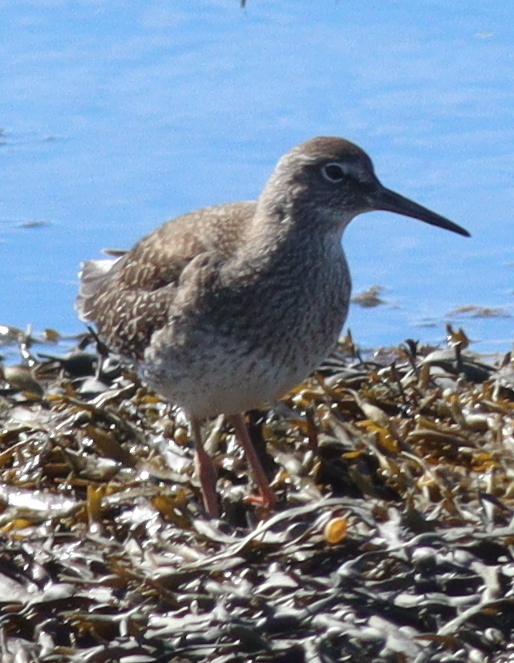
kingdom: Animalia
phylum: Chordata
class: Aves
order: Charadriiformes
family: Scolopacidae
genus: Tringa
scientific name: Tringa totanus
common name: Common redshank
